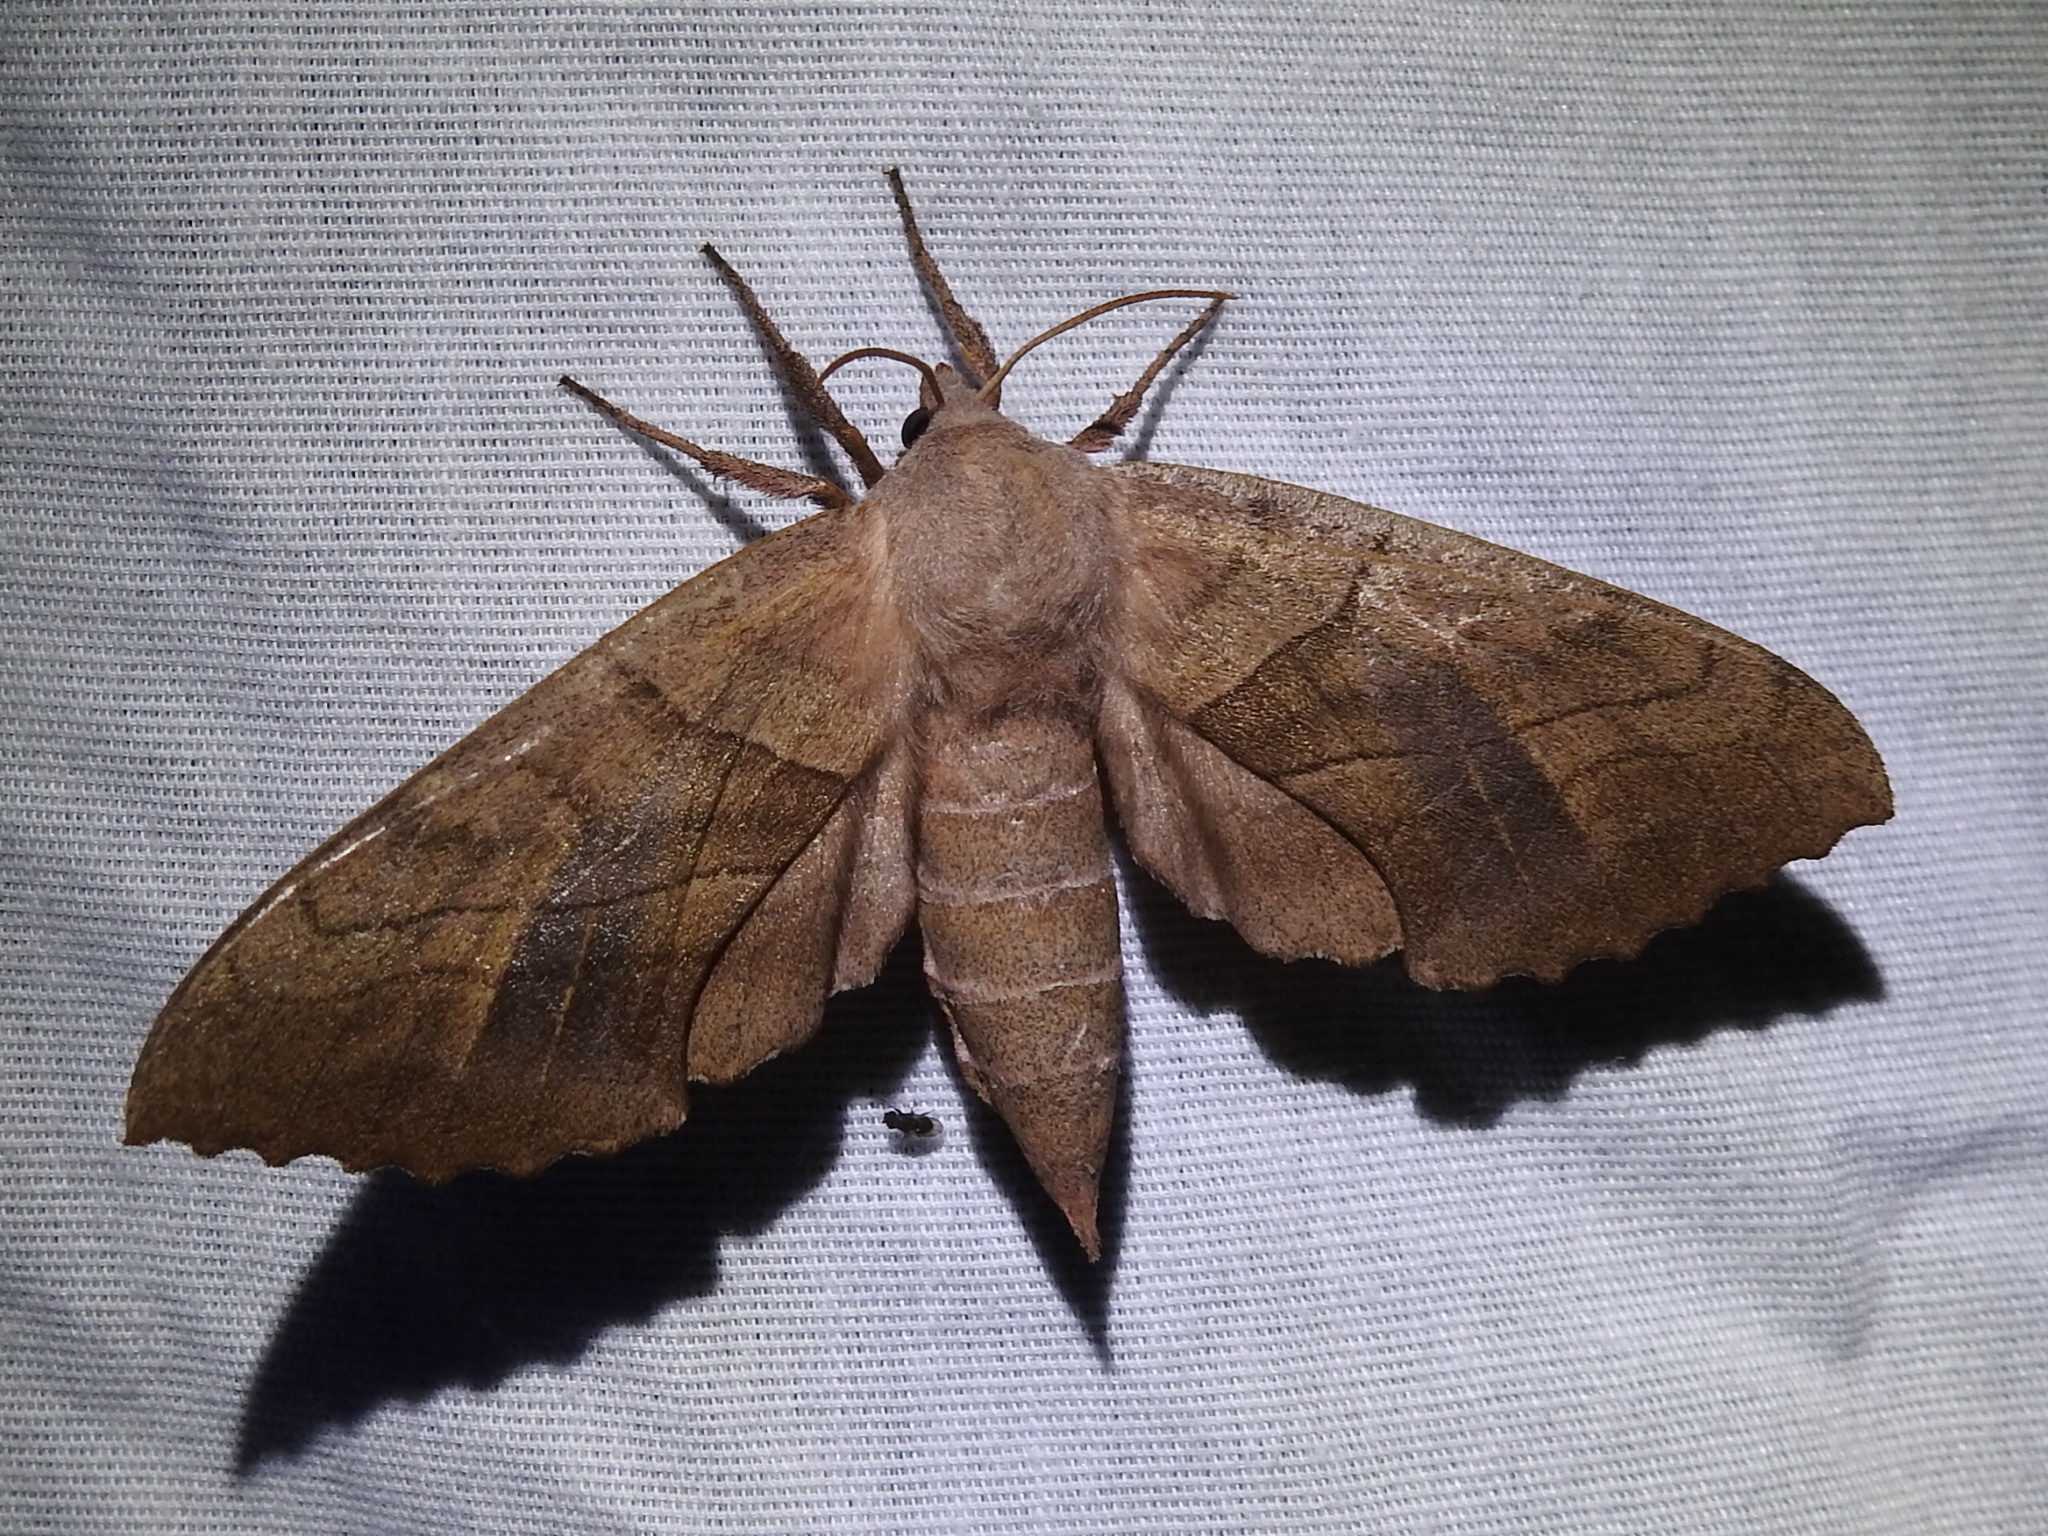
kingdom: Animalia
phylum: Arthropoda
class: Insecta
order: Lepidoptera
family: Sphingidae
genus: Amorpha
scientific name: Amorpha juglandis
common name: Walnut sphinx
